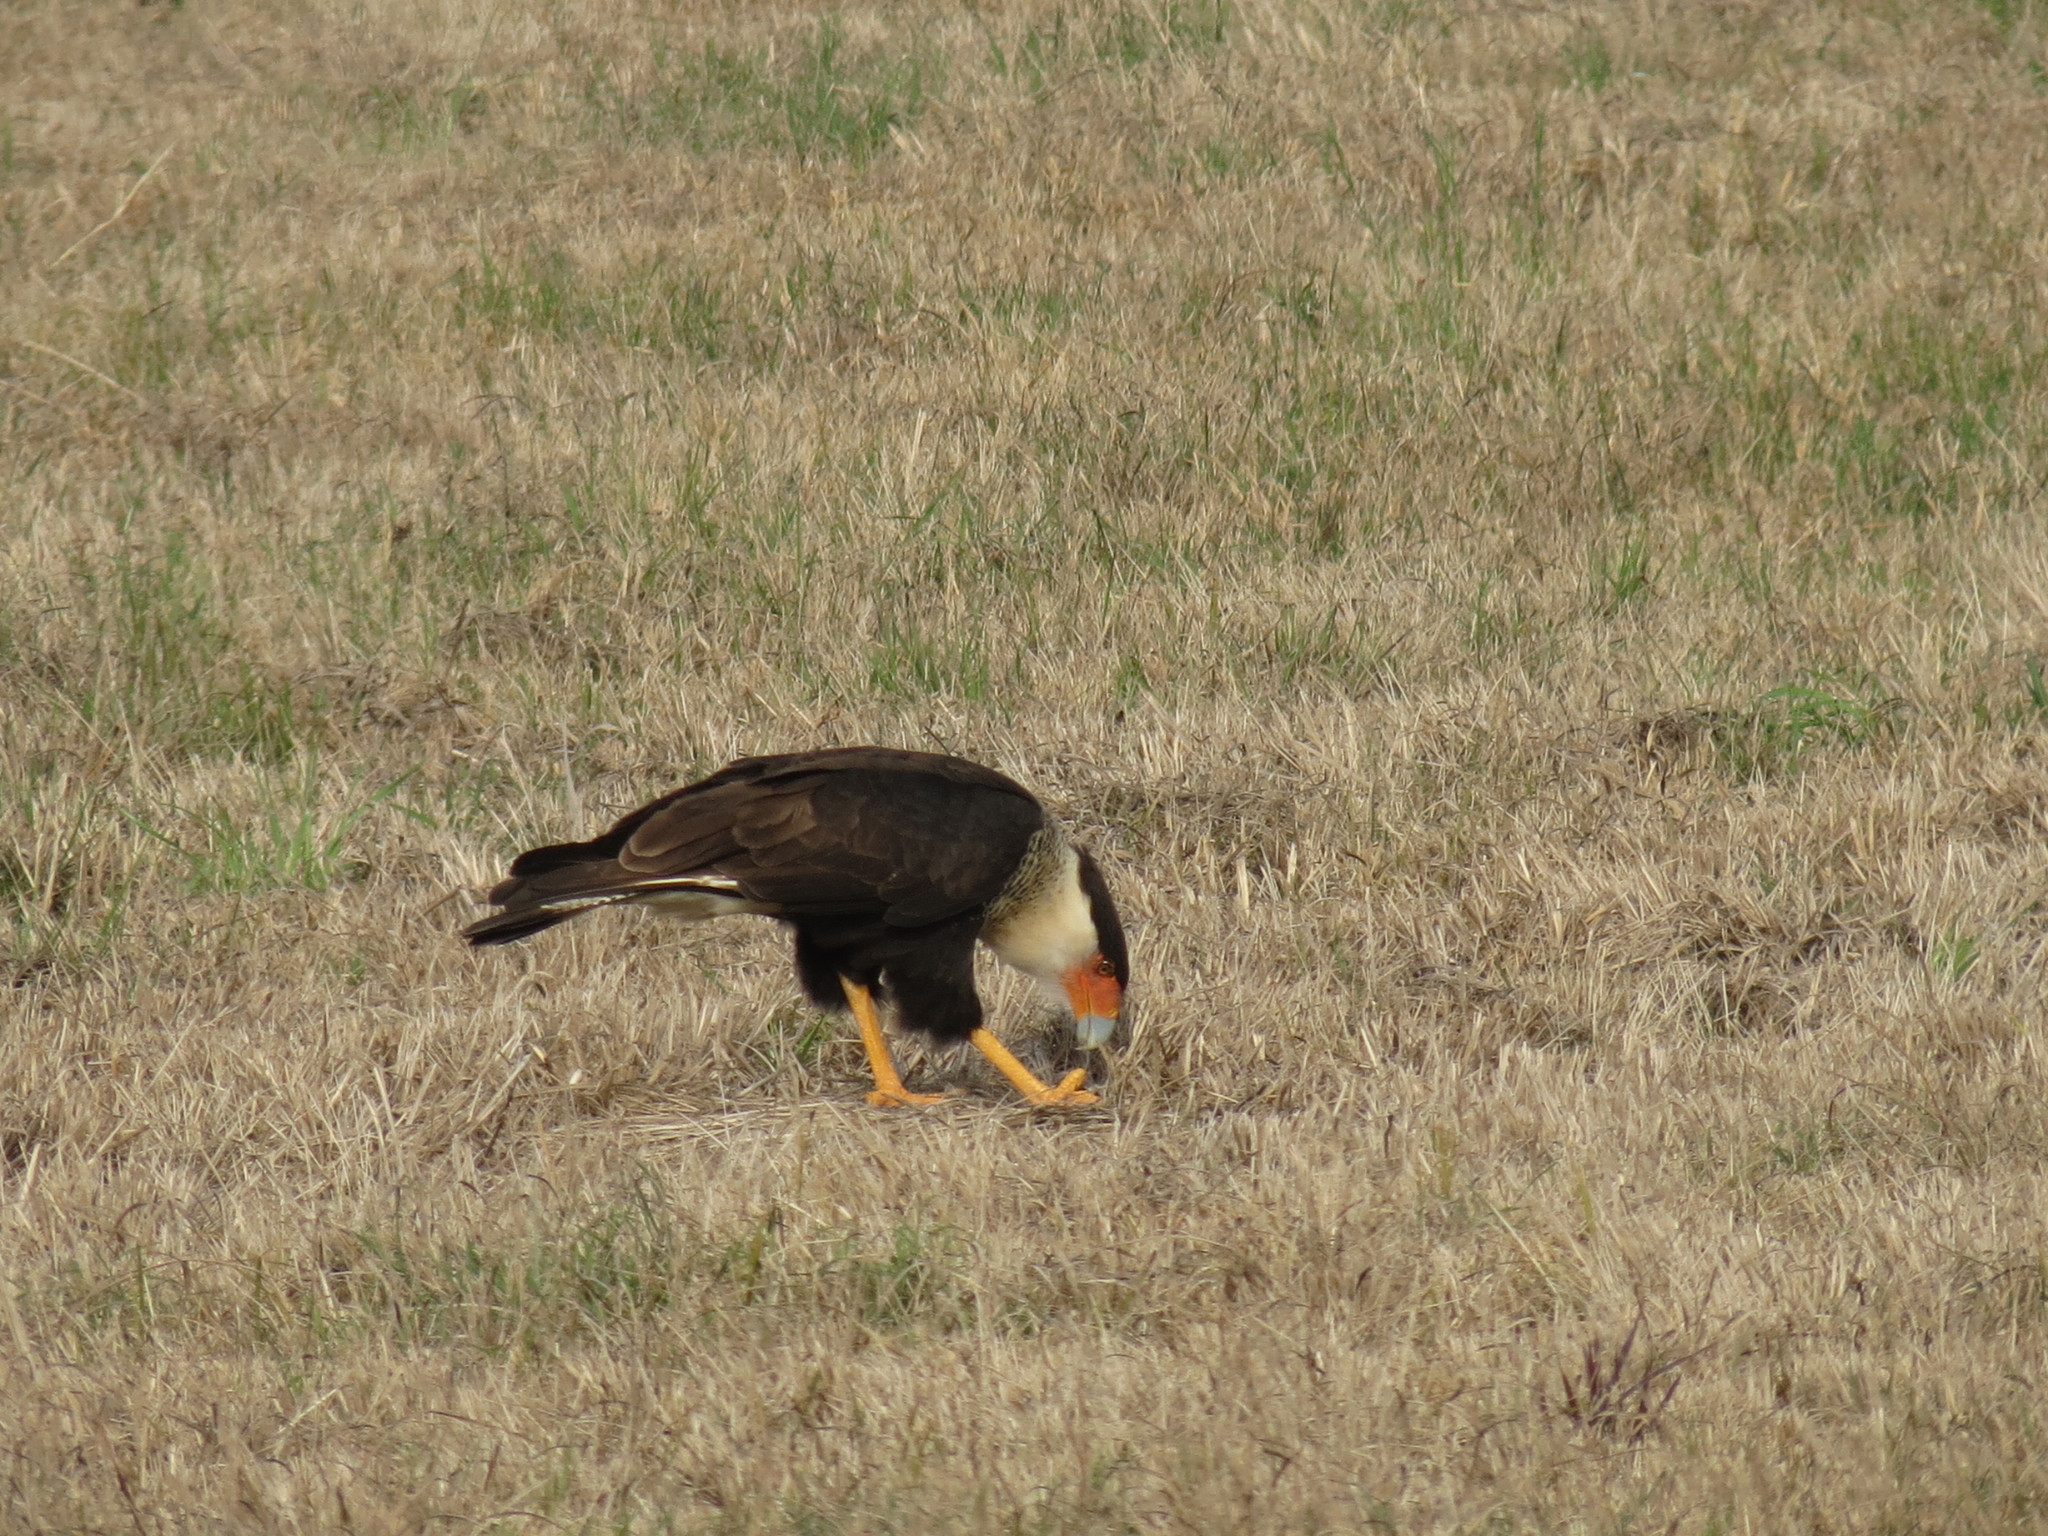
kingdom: Animalia
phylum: Chordata
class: Aves
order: Falconiformes
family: Falconidae
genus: Caracara
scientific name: Caracara plancus
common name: Southern caracara
